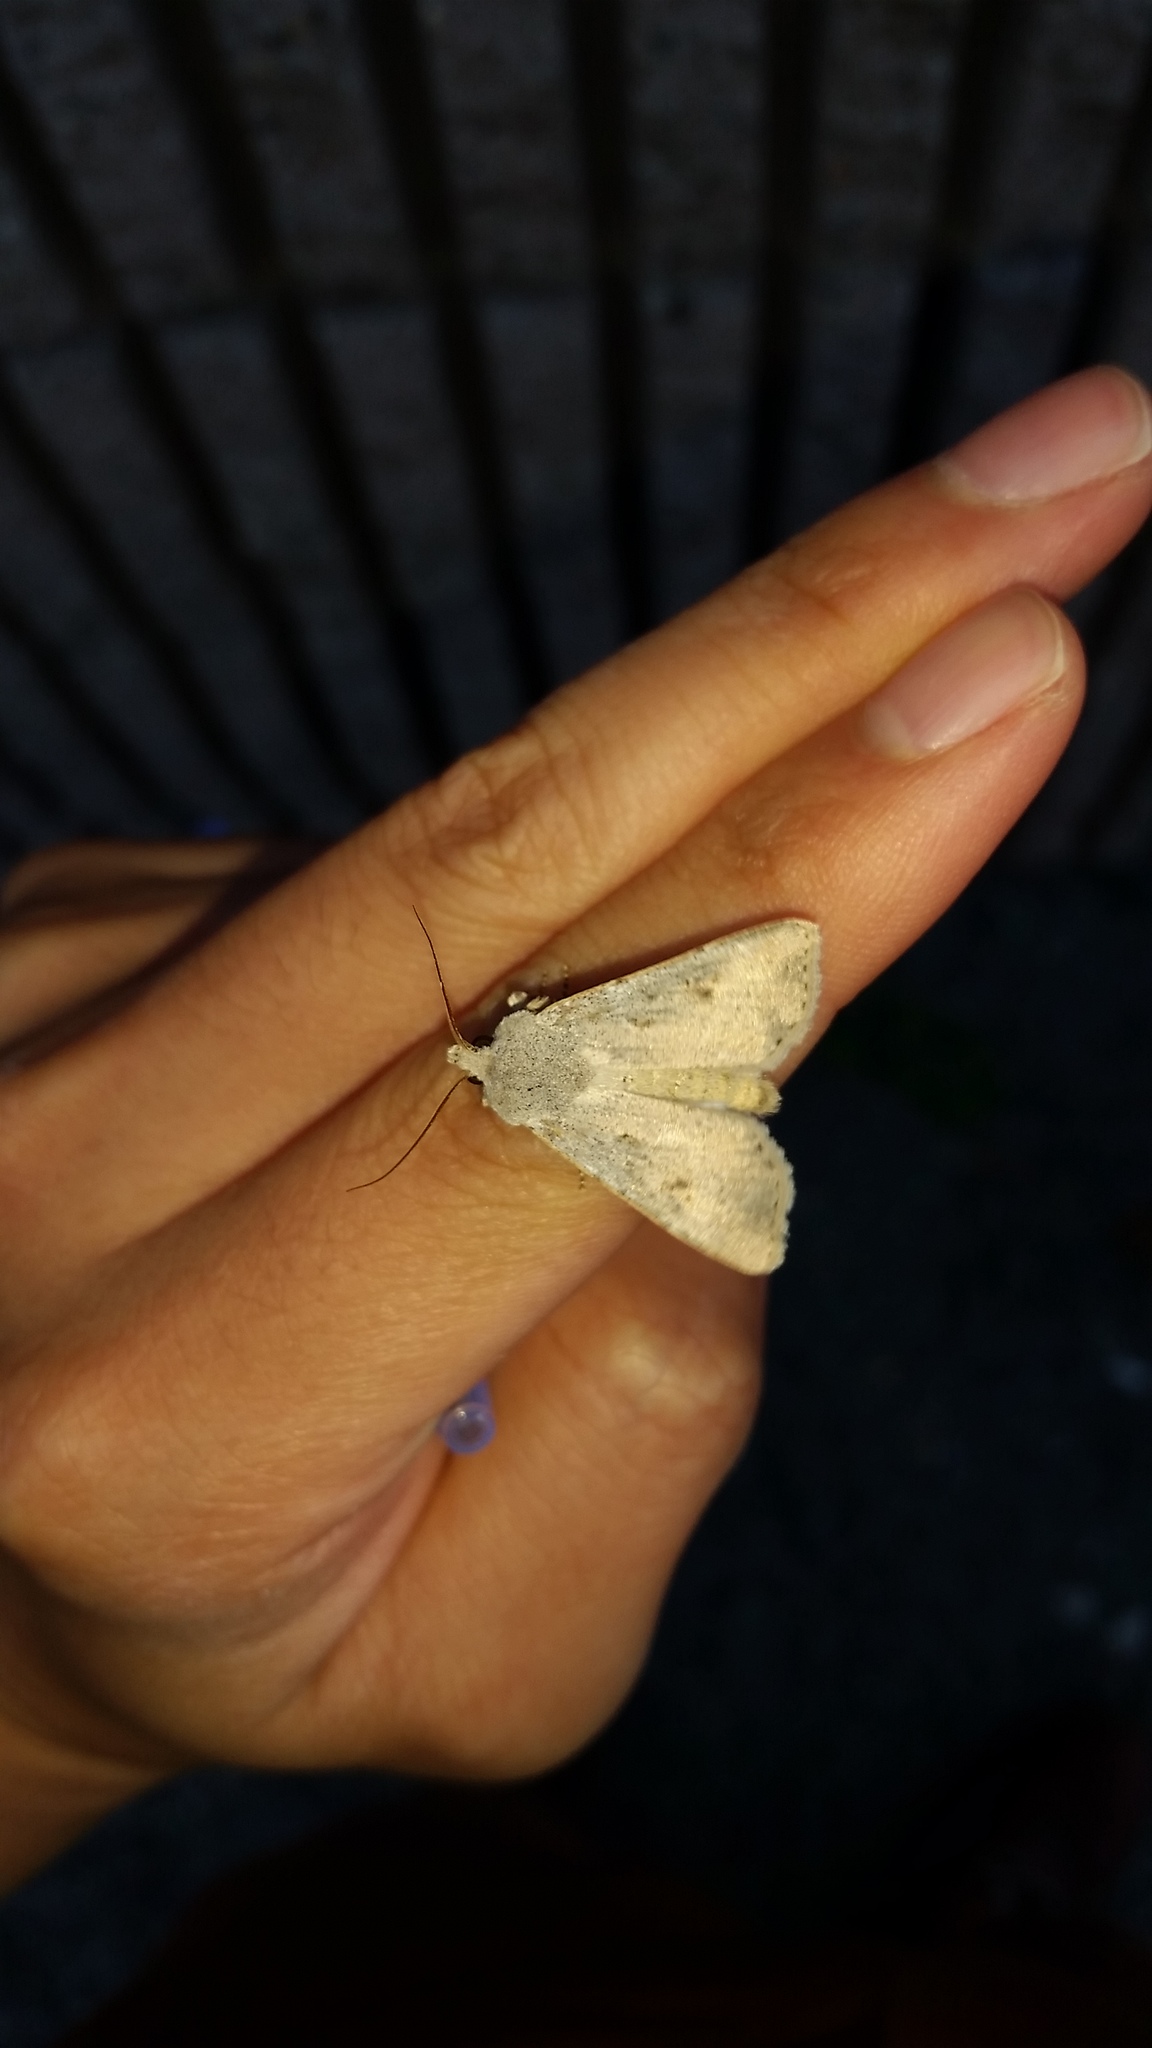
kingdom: Animalia
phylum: Arthropoda
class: Insecta
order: Lepidoptera
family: Noctuidae
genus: Agrotis
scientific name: Agrotis vetusta
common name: Old man dart
